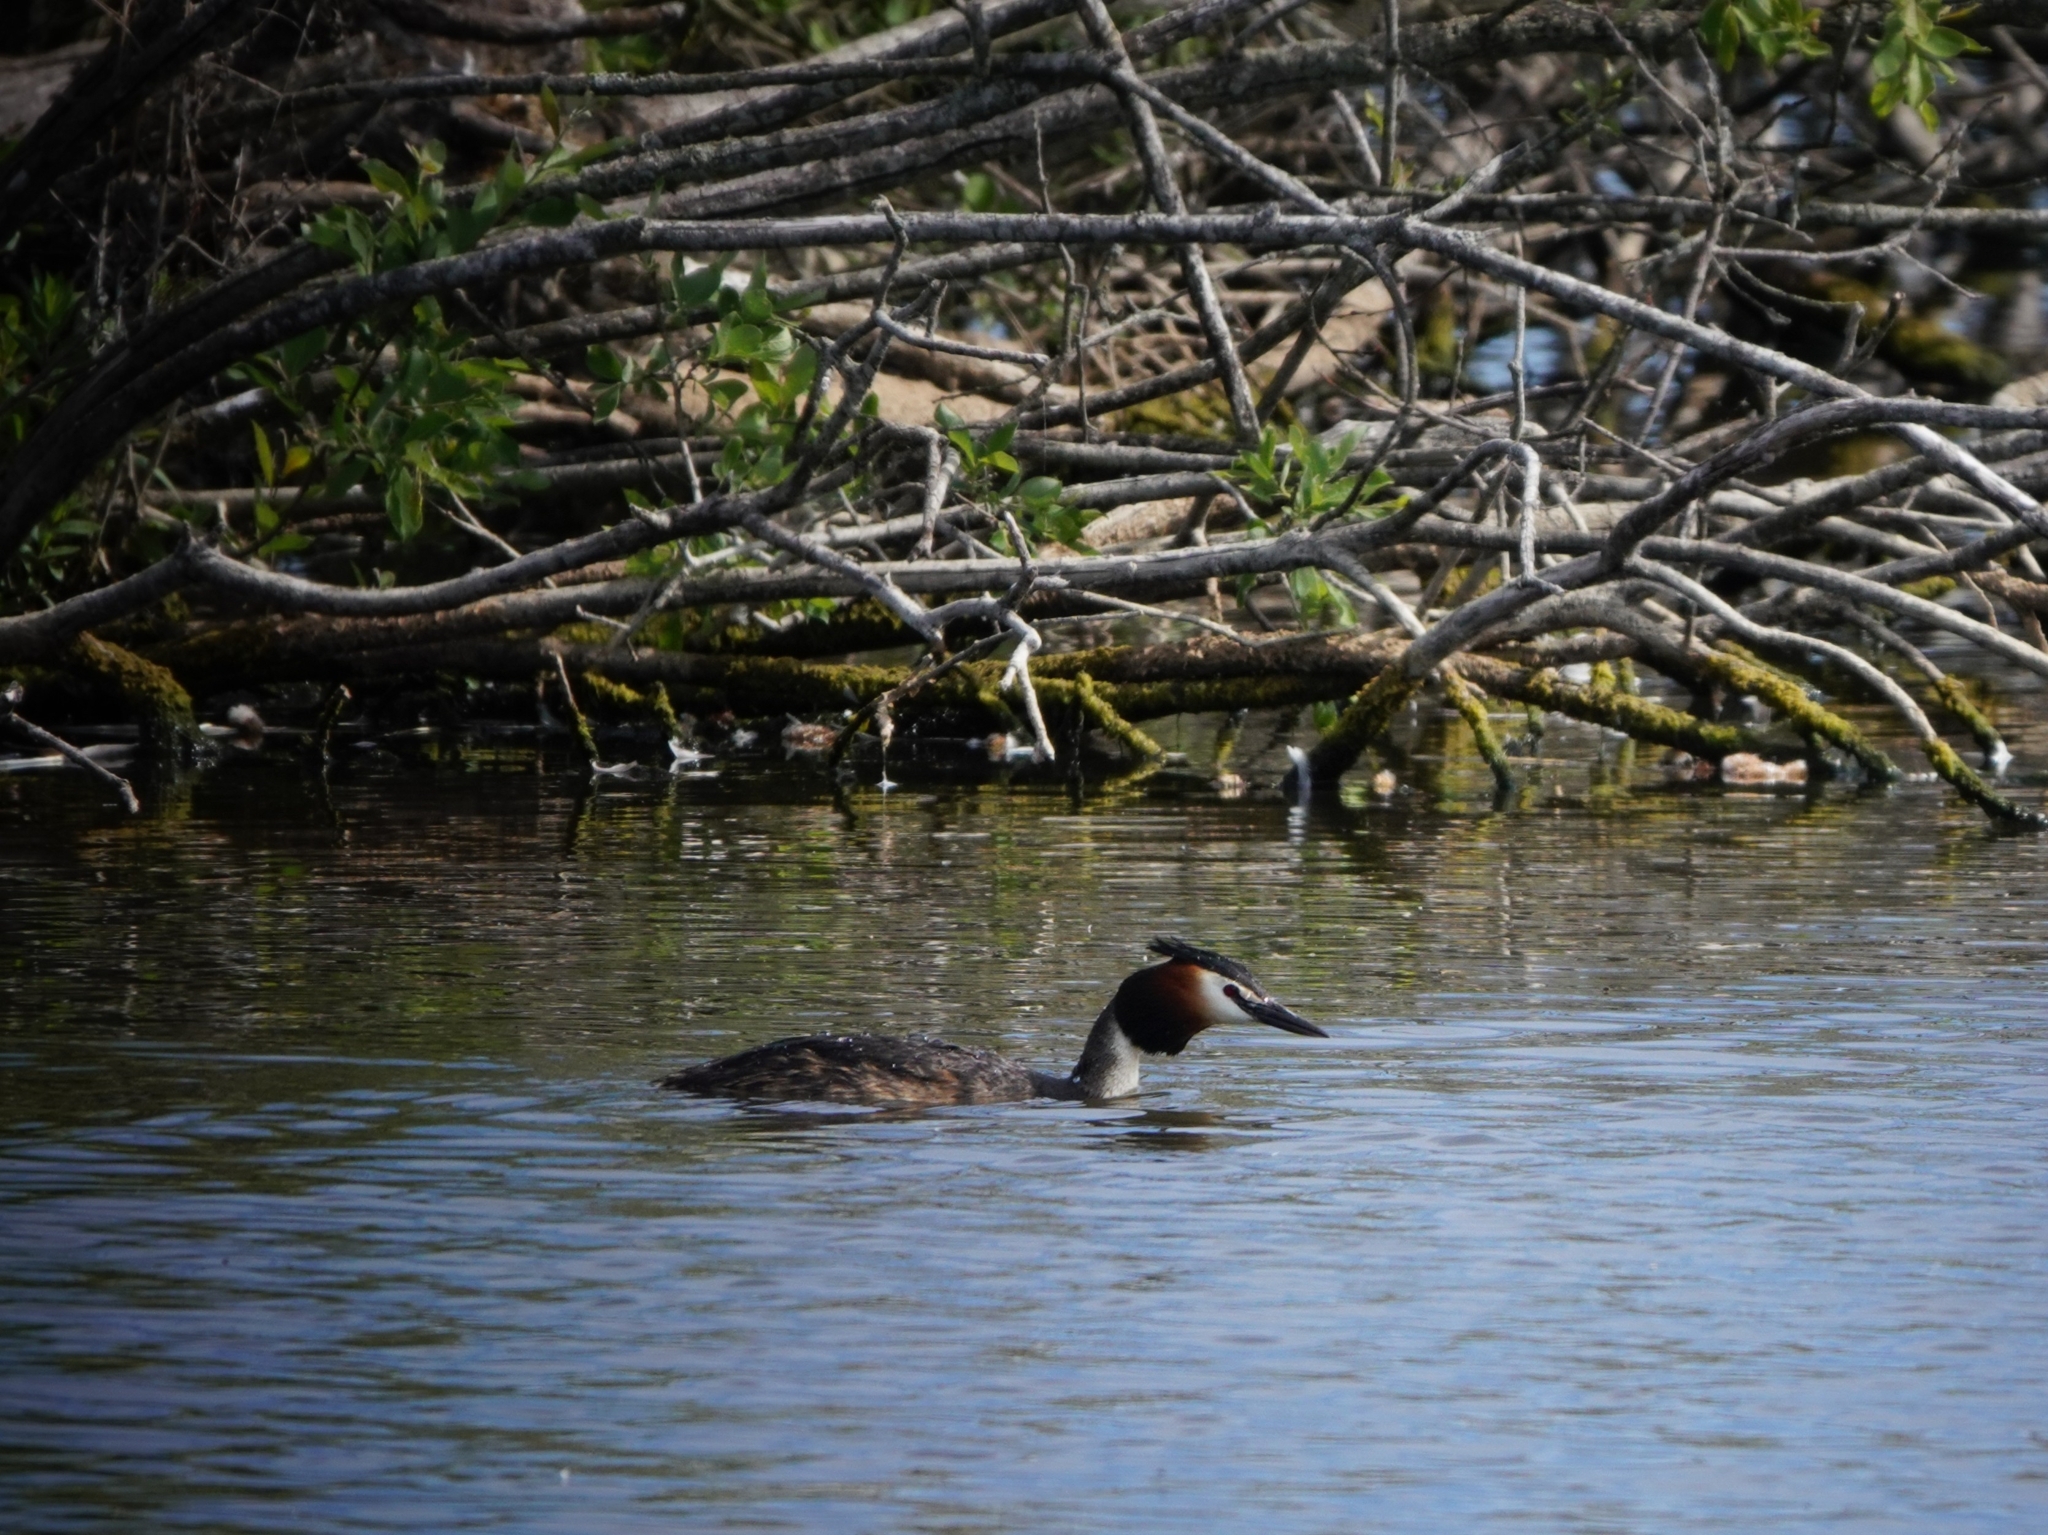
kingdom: Animalia
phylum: Chordata
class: Aves
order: Podicipediformes
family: Podicipedidae
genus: Podiceps
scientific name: Podiceps cristatus
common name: Great crested grebe
